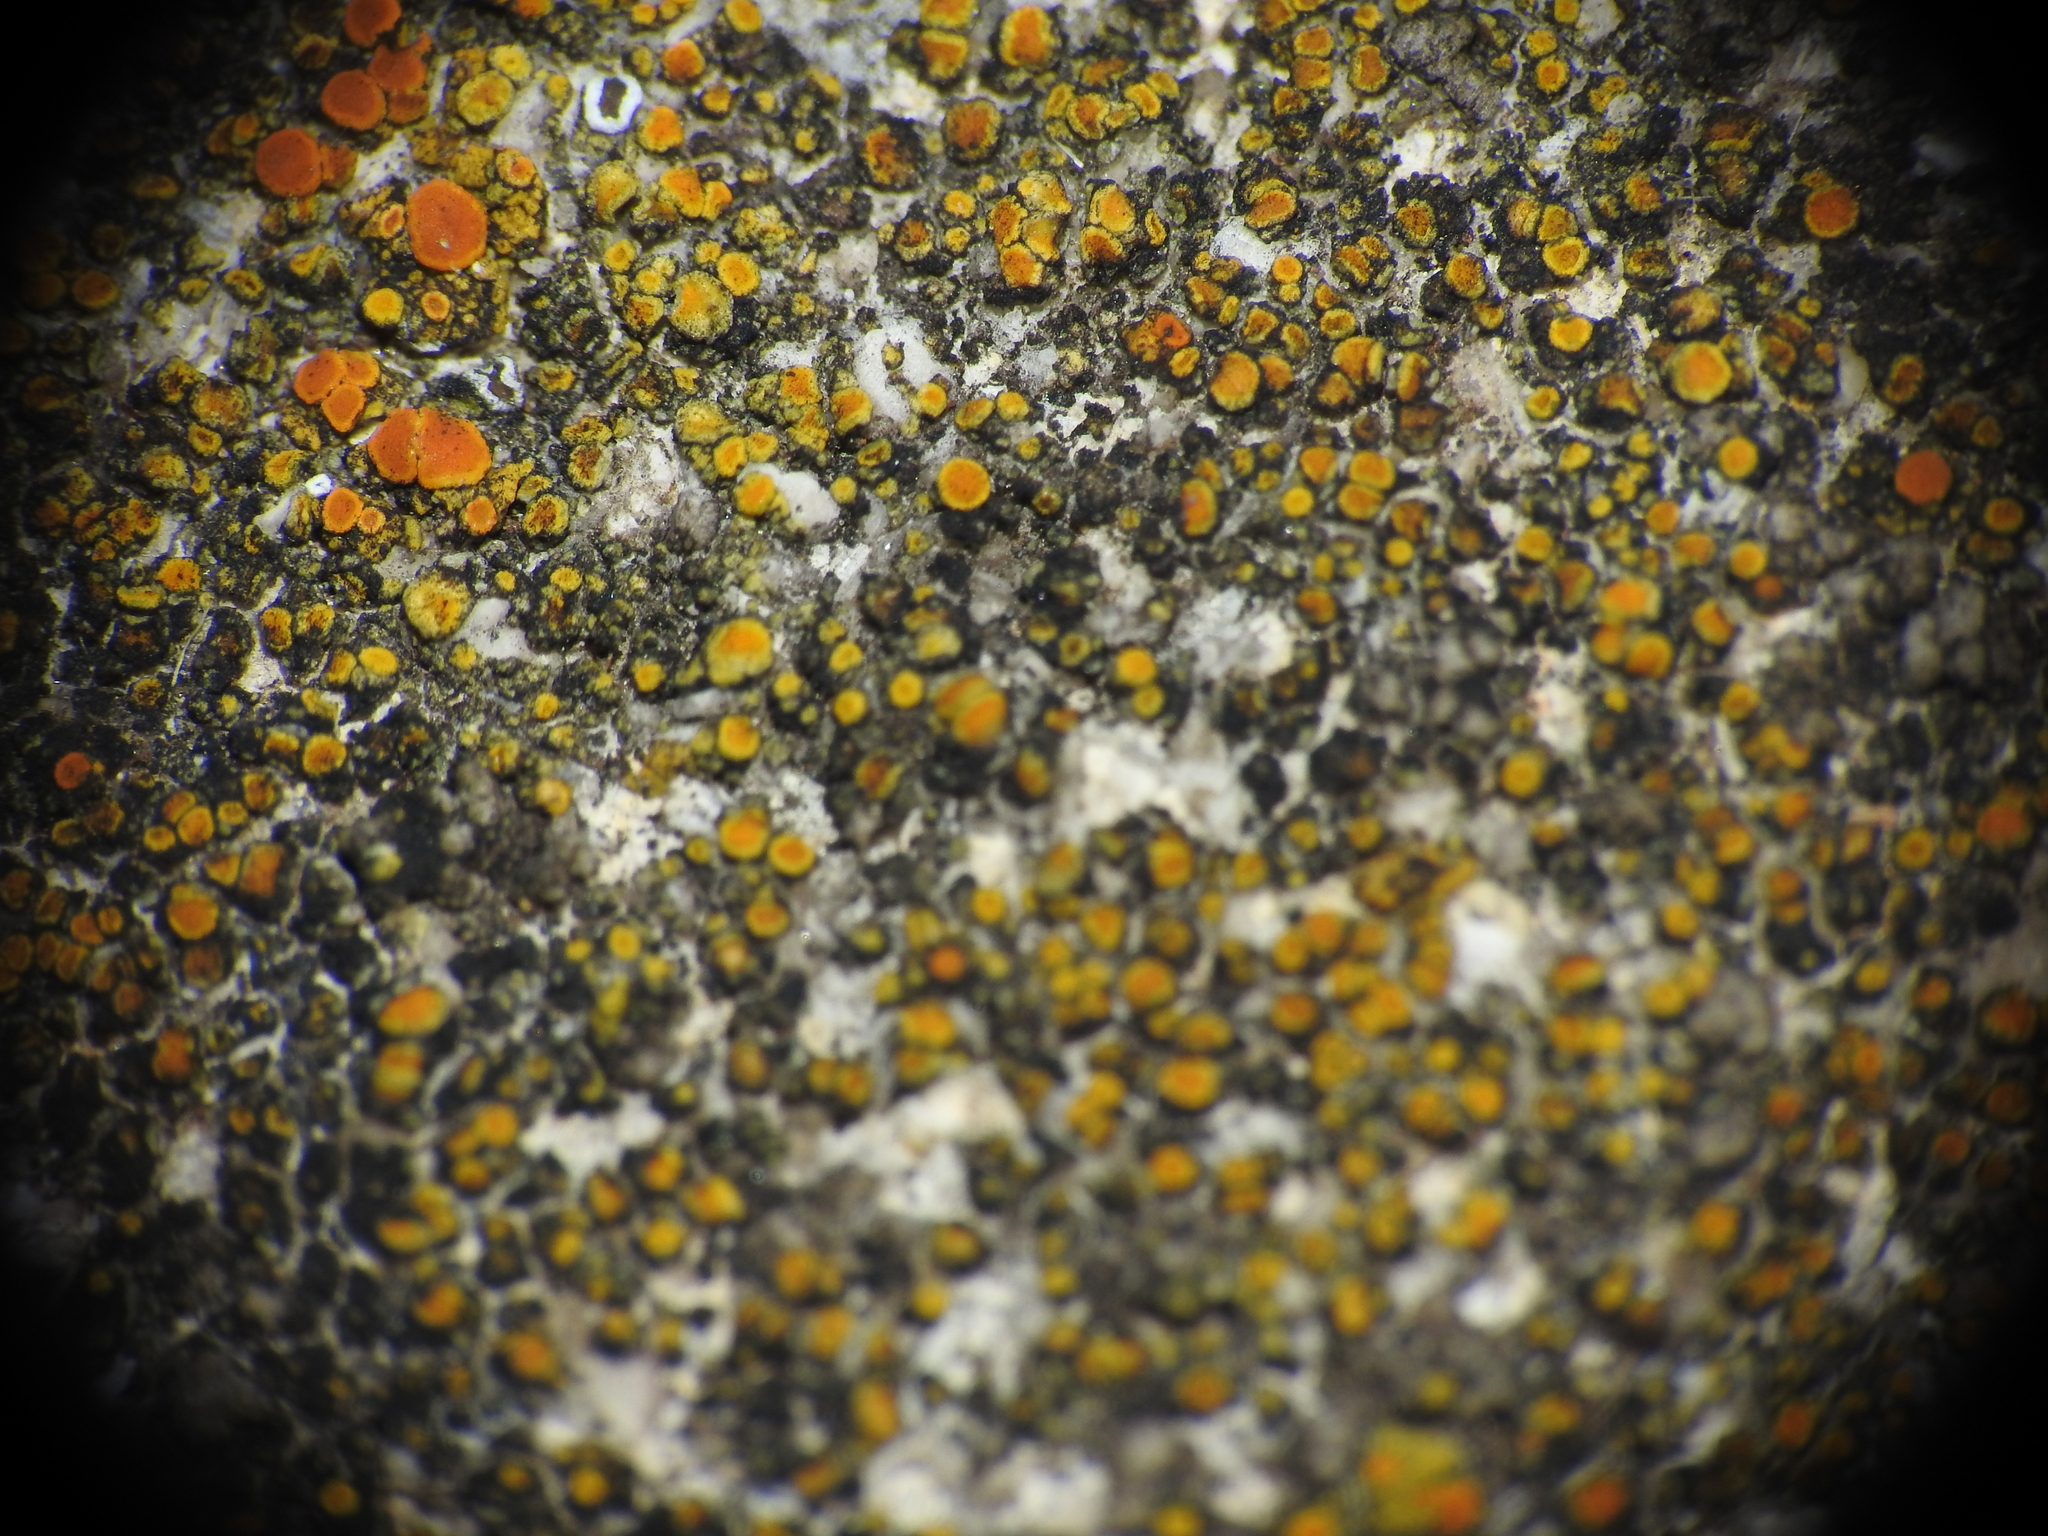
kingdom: Fungi
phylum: Ascomycota
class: Lecanoromycetes
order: Teloschistales
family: Teloschistaceae
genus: Xanthocarpia
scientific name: Xanthocarpia feracissima
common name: Sidewalk firedot
